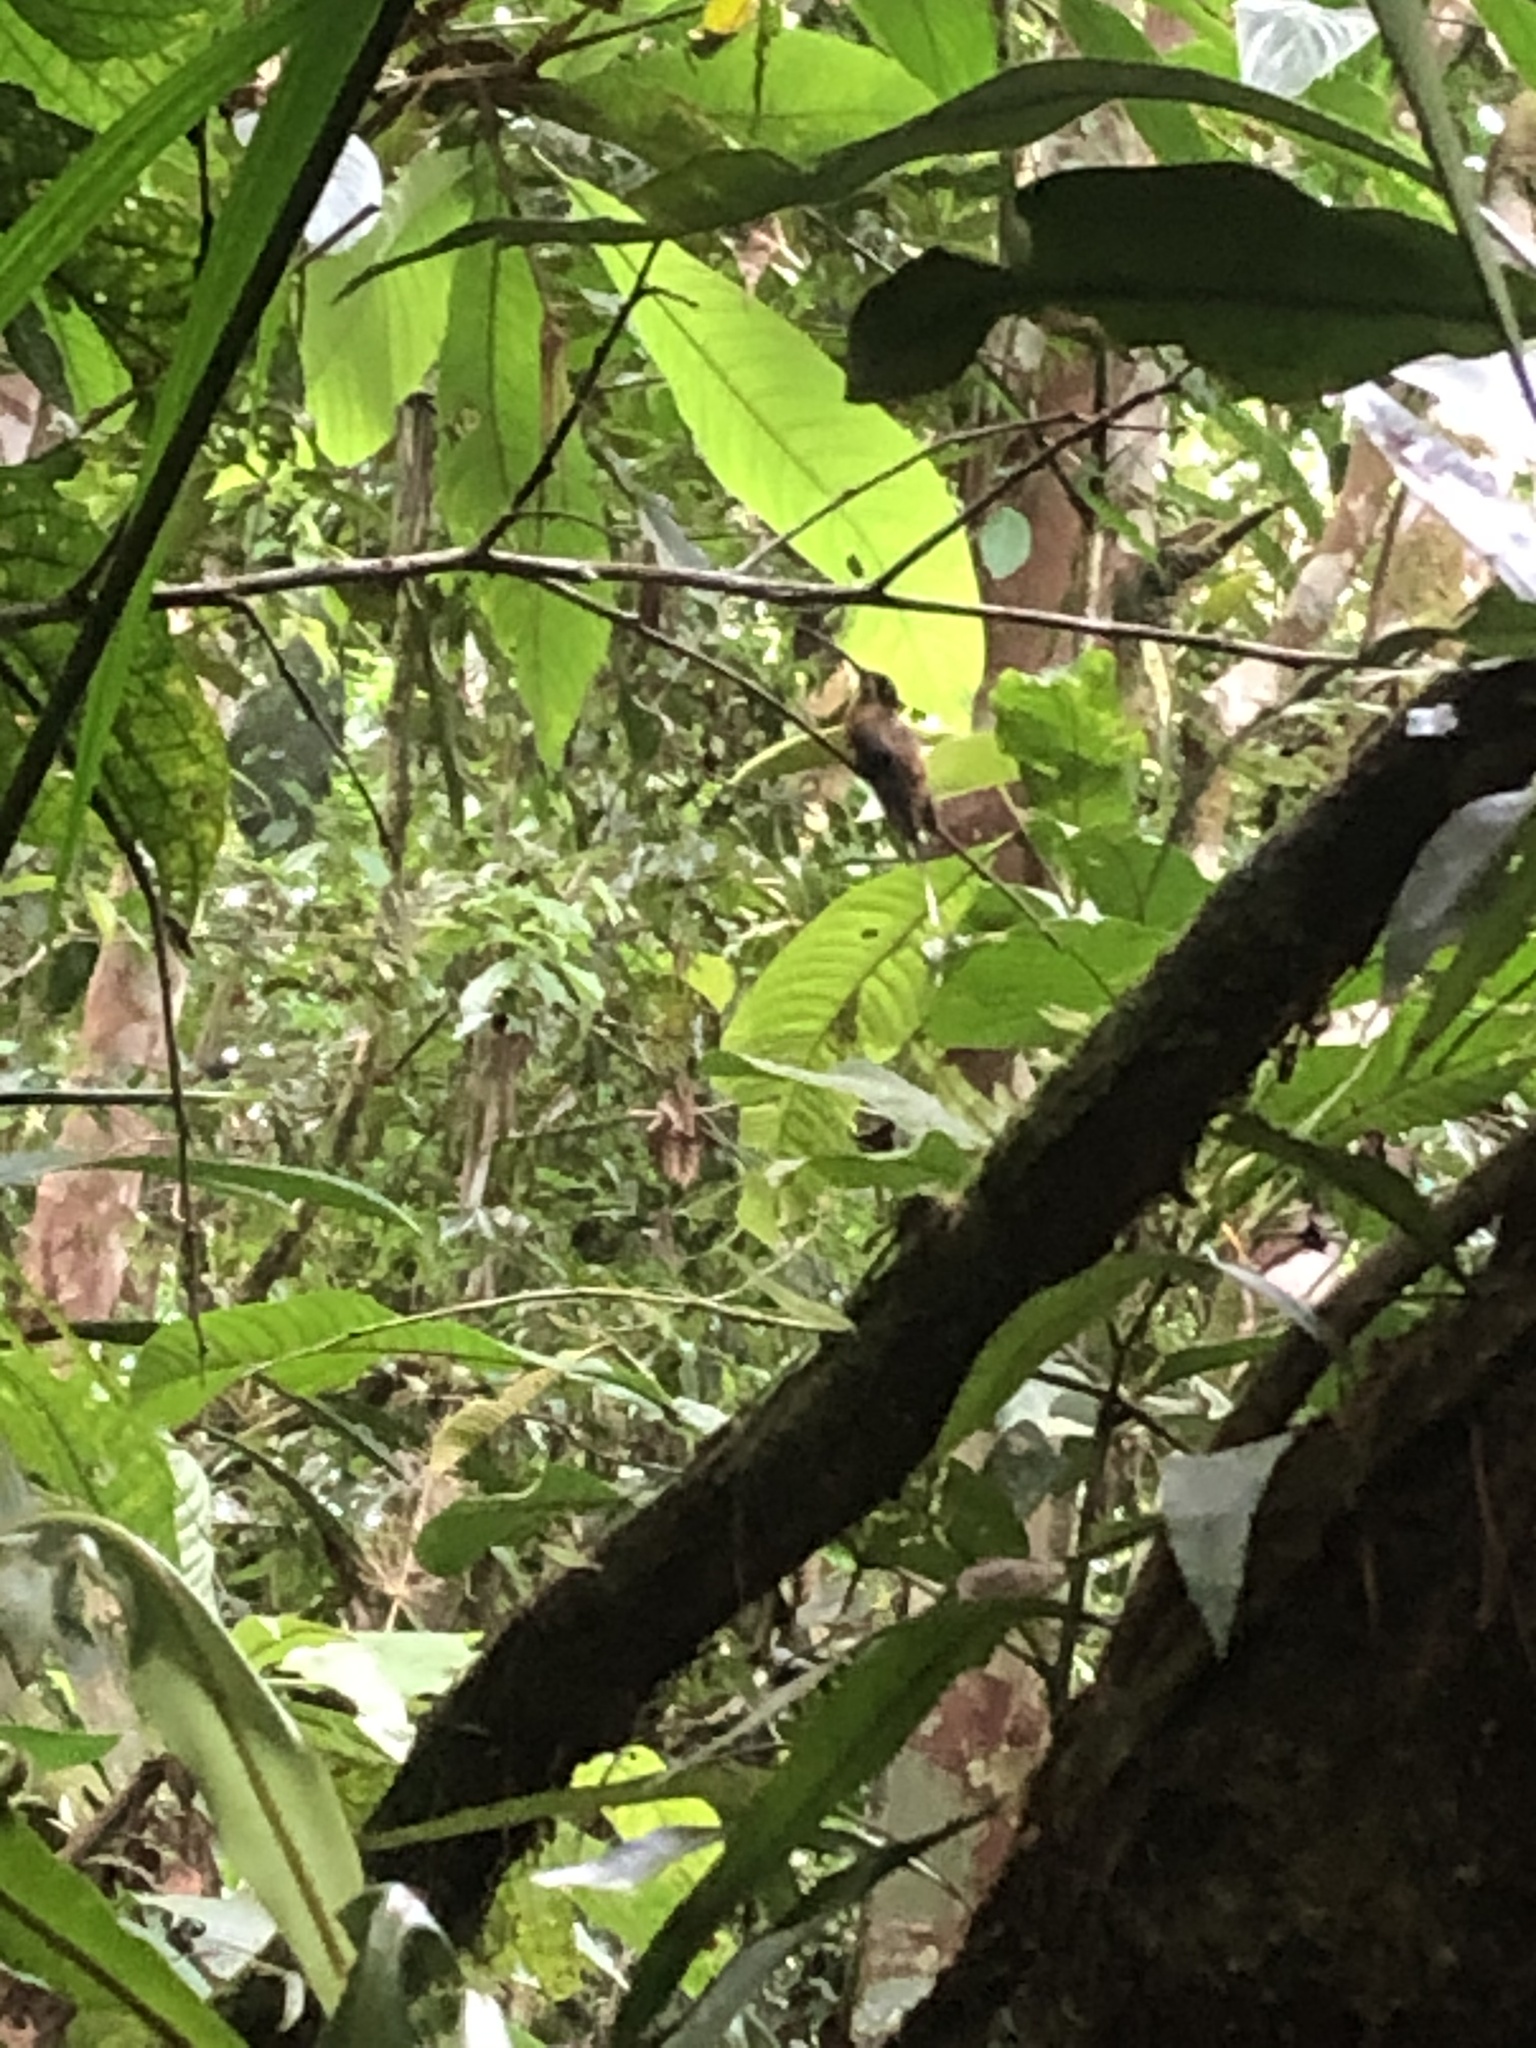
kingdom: Animalia
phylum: Chordata
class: Aves
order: Apodiformes
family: Trochilidae
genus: Phaethornis
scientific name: Phaethornis koepckeae
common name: Koepcke's hermit
